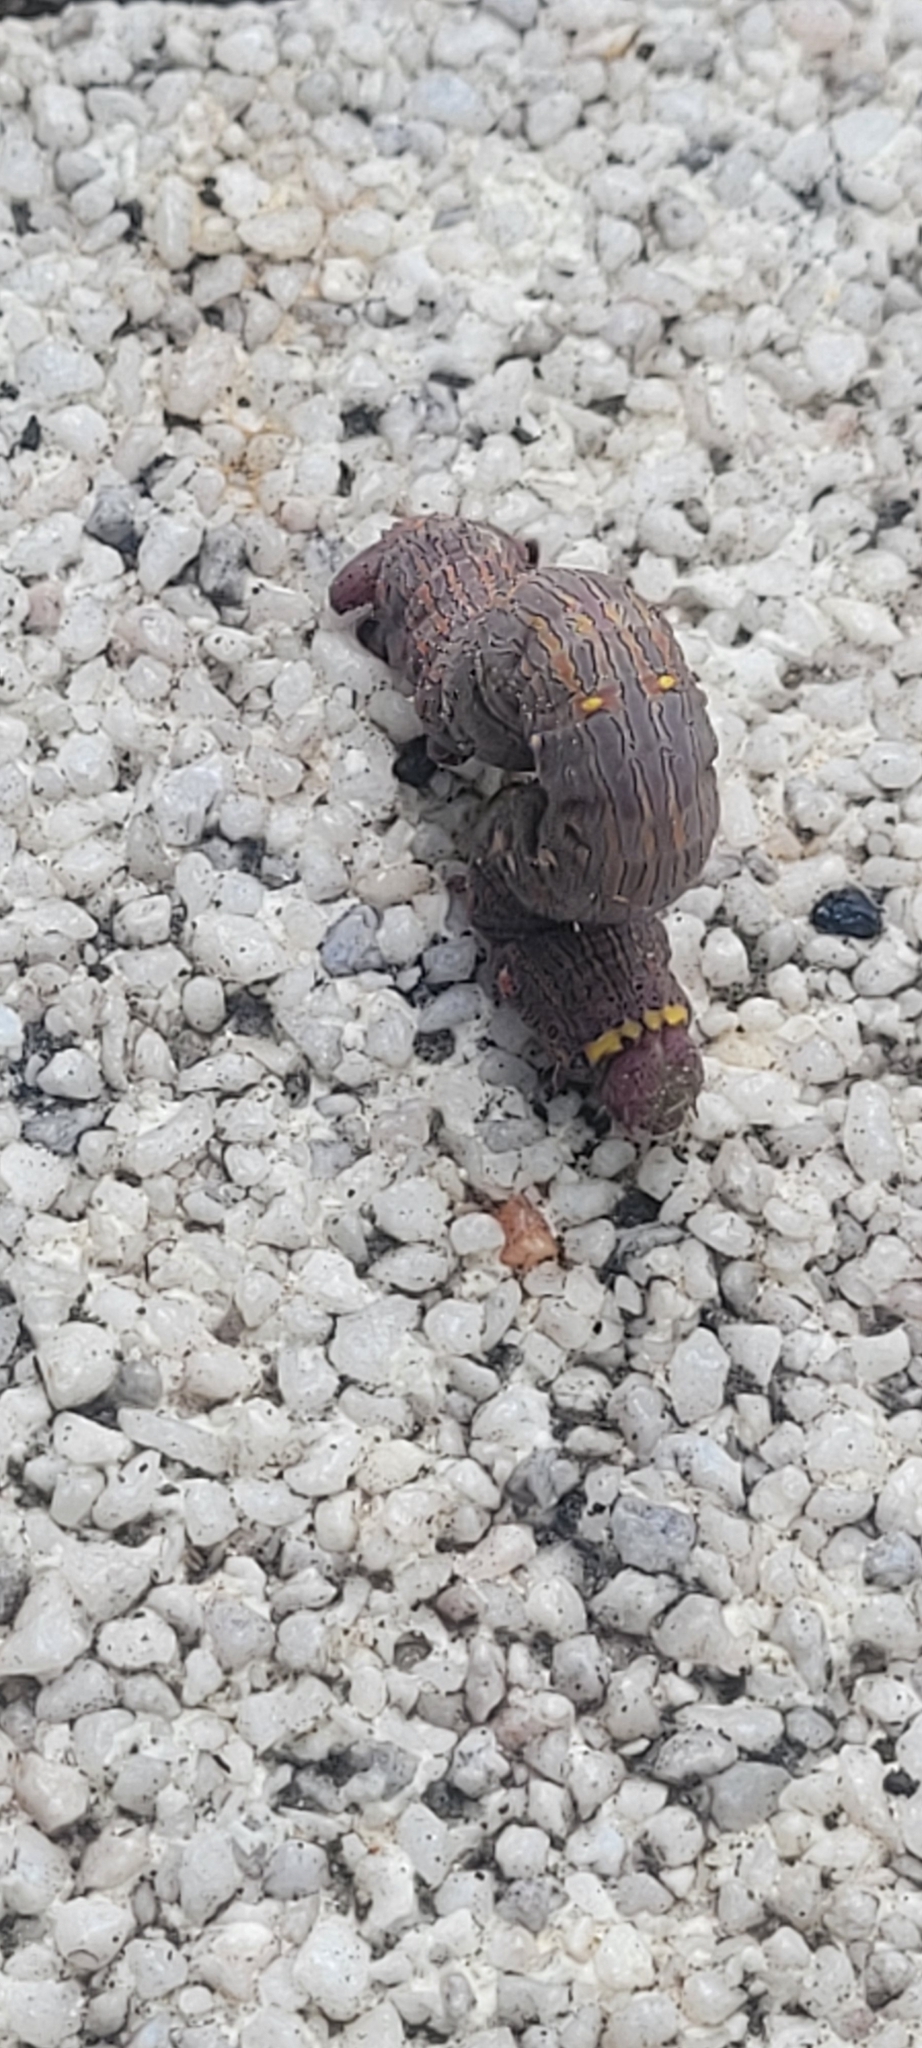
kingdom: Animalia
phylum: Arthropoda
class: Insecta
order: Lepidoptera
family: Geometridae
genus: Lycia
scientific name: Lycia hirtaria
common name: Brindled beauty
